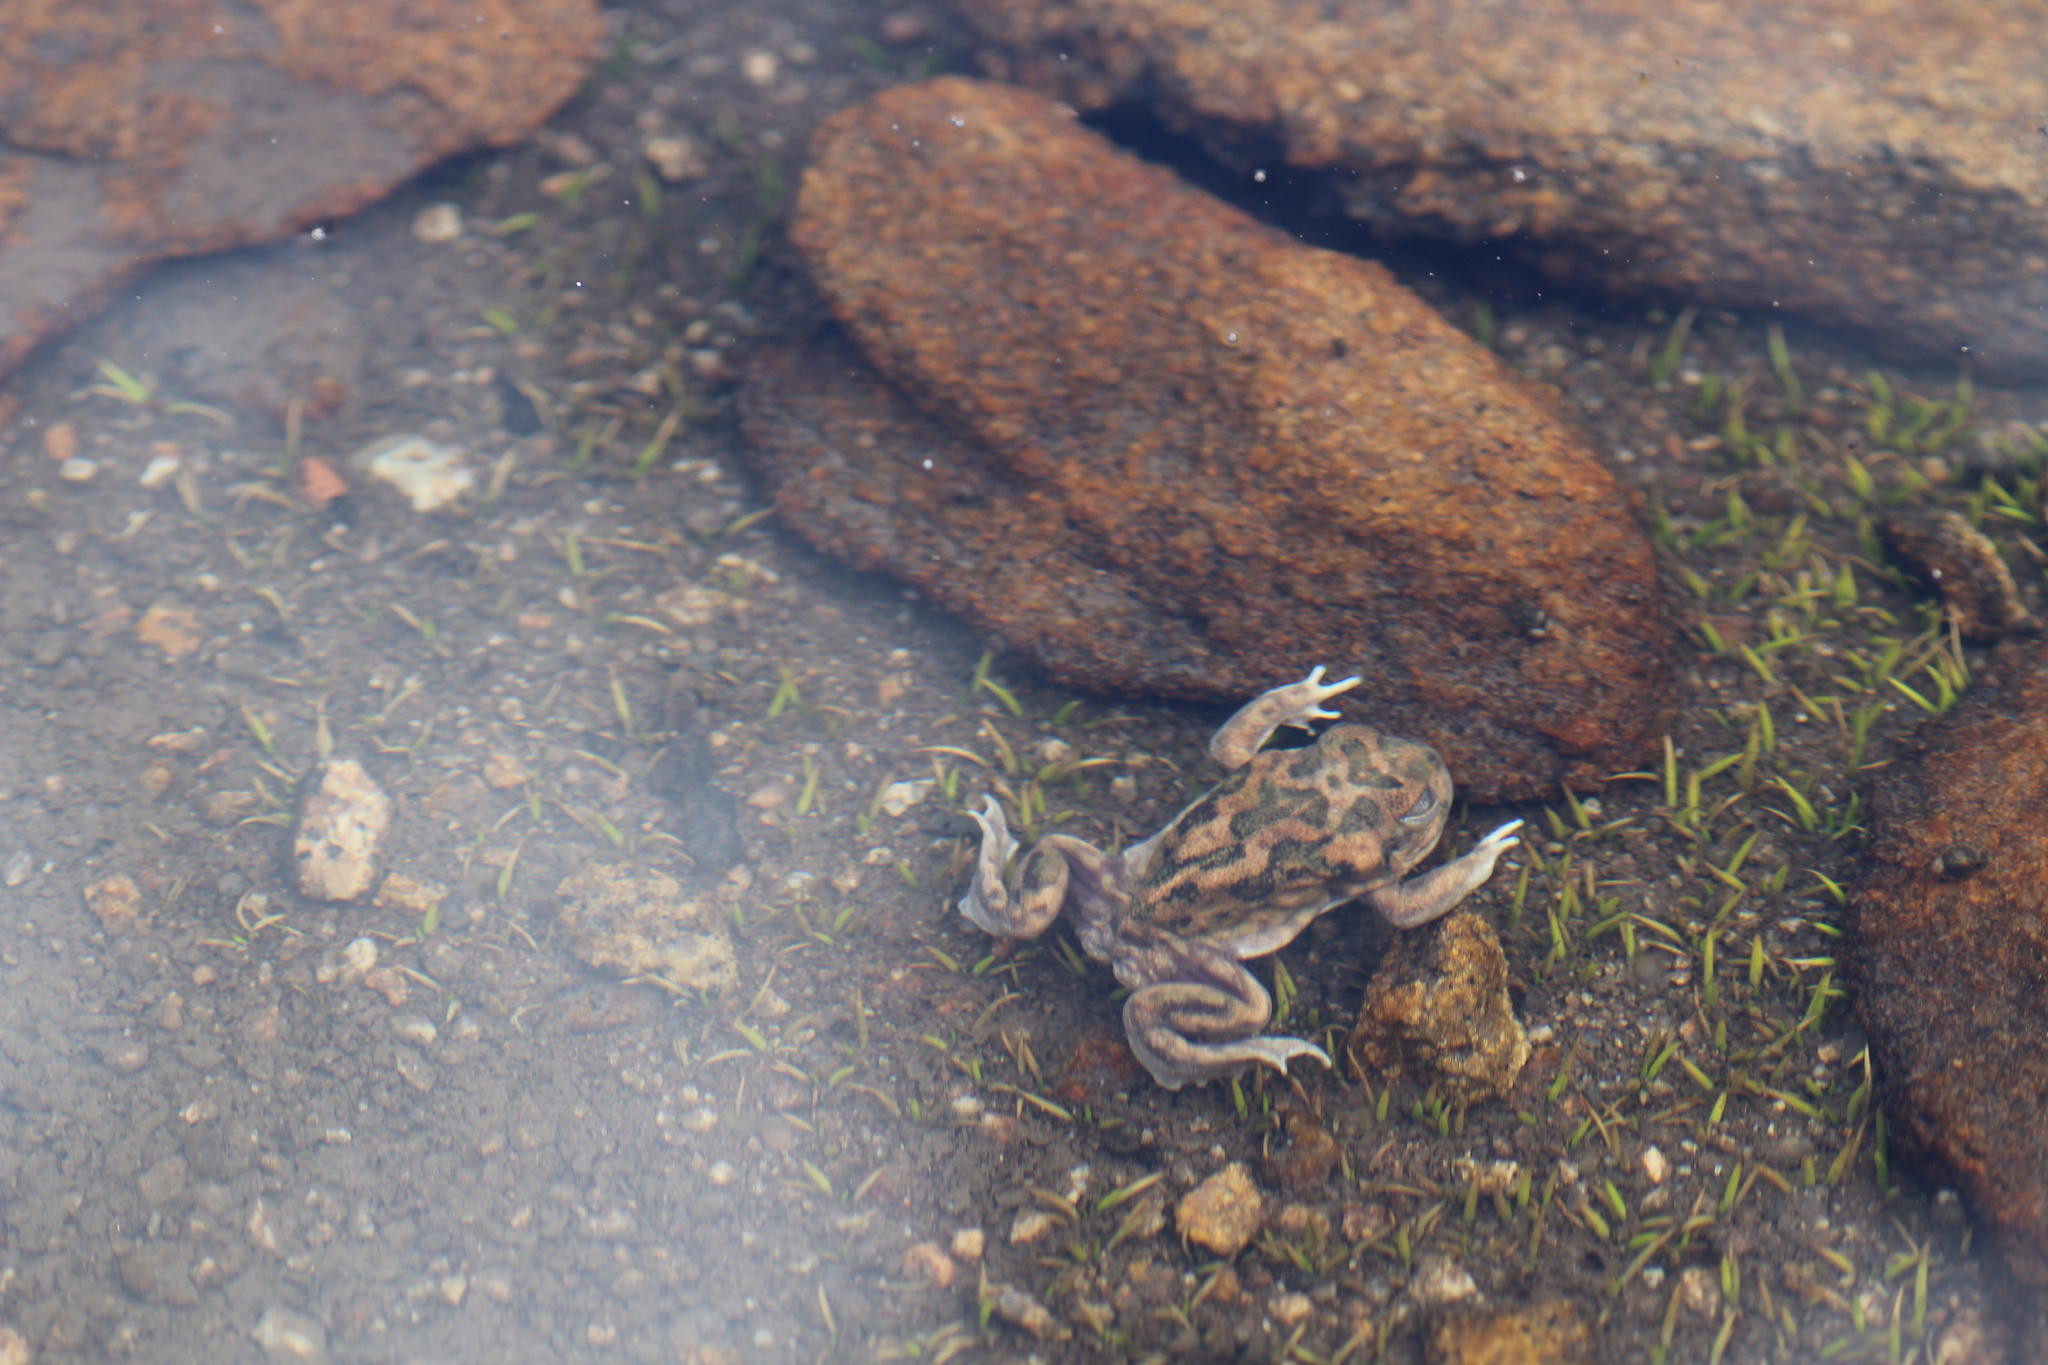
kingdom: Animalia
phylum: Chordata
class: Amphibia
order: Anura
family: Limnodynastidae
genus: Neobatrachus
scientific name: Neobatrachus sutor
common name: Shoemaker frog
